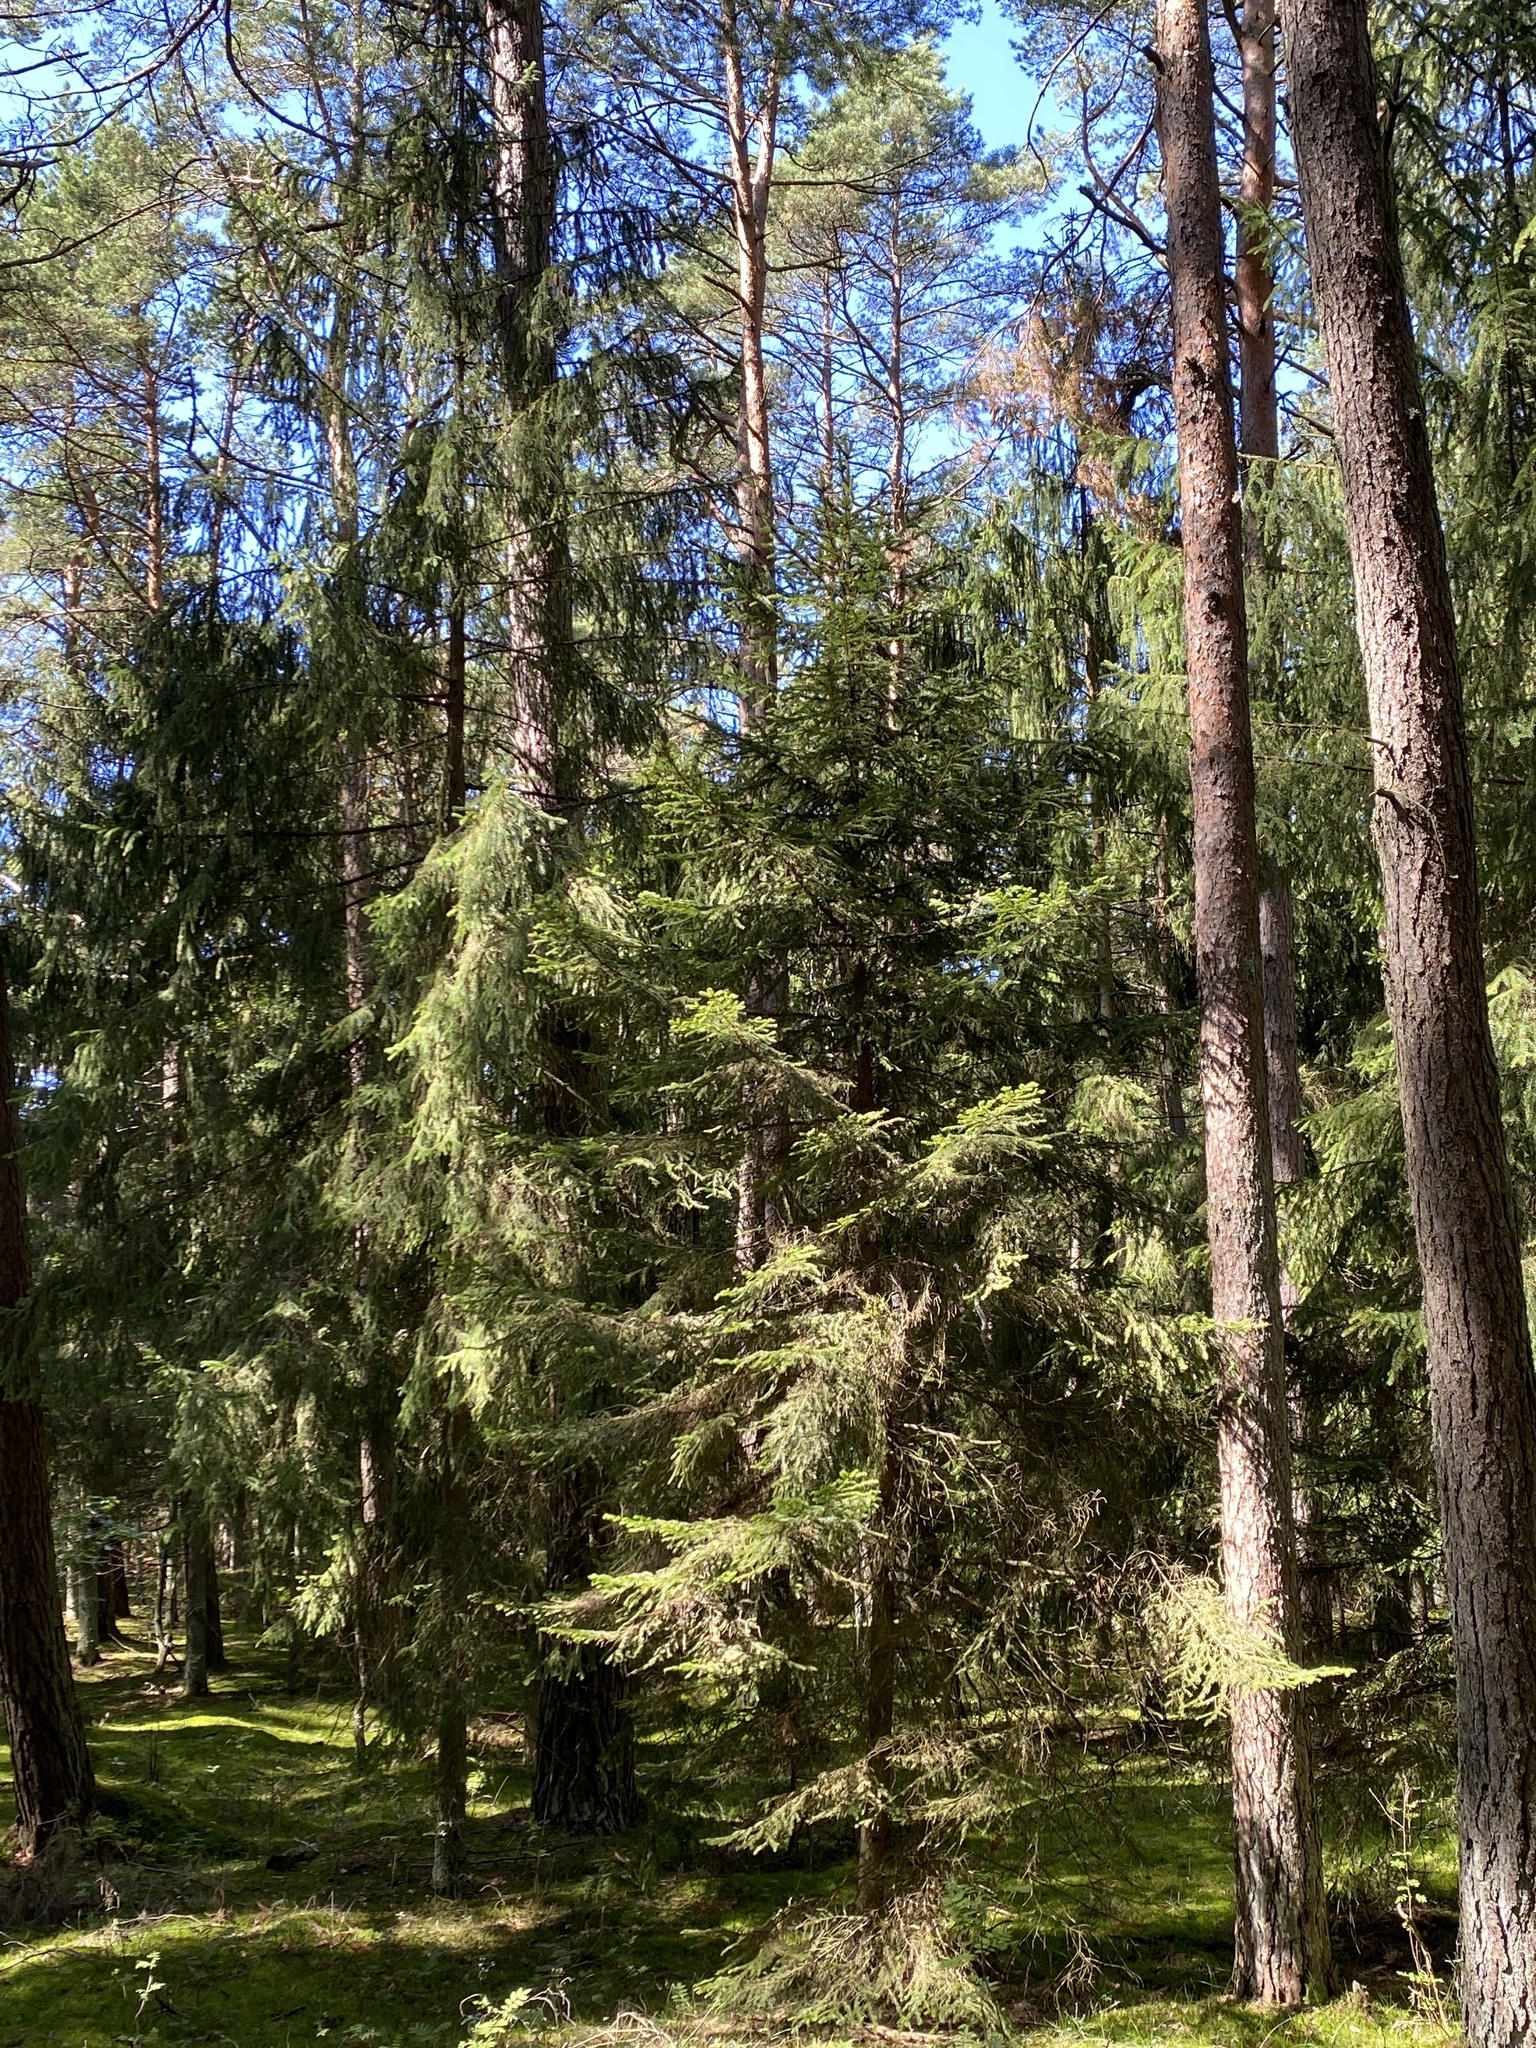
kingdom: Plantae
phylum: Tracheophyta
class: Pinopsida
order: Pinales
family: Pinaceae
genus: Picea
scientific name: Picea abies
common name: Norway spruce
